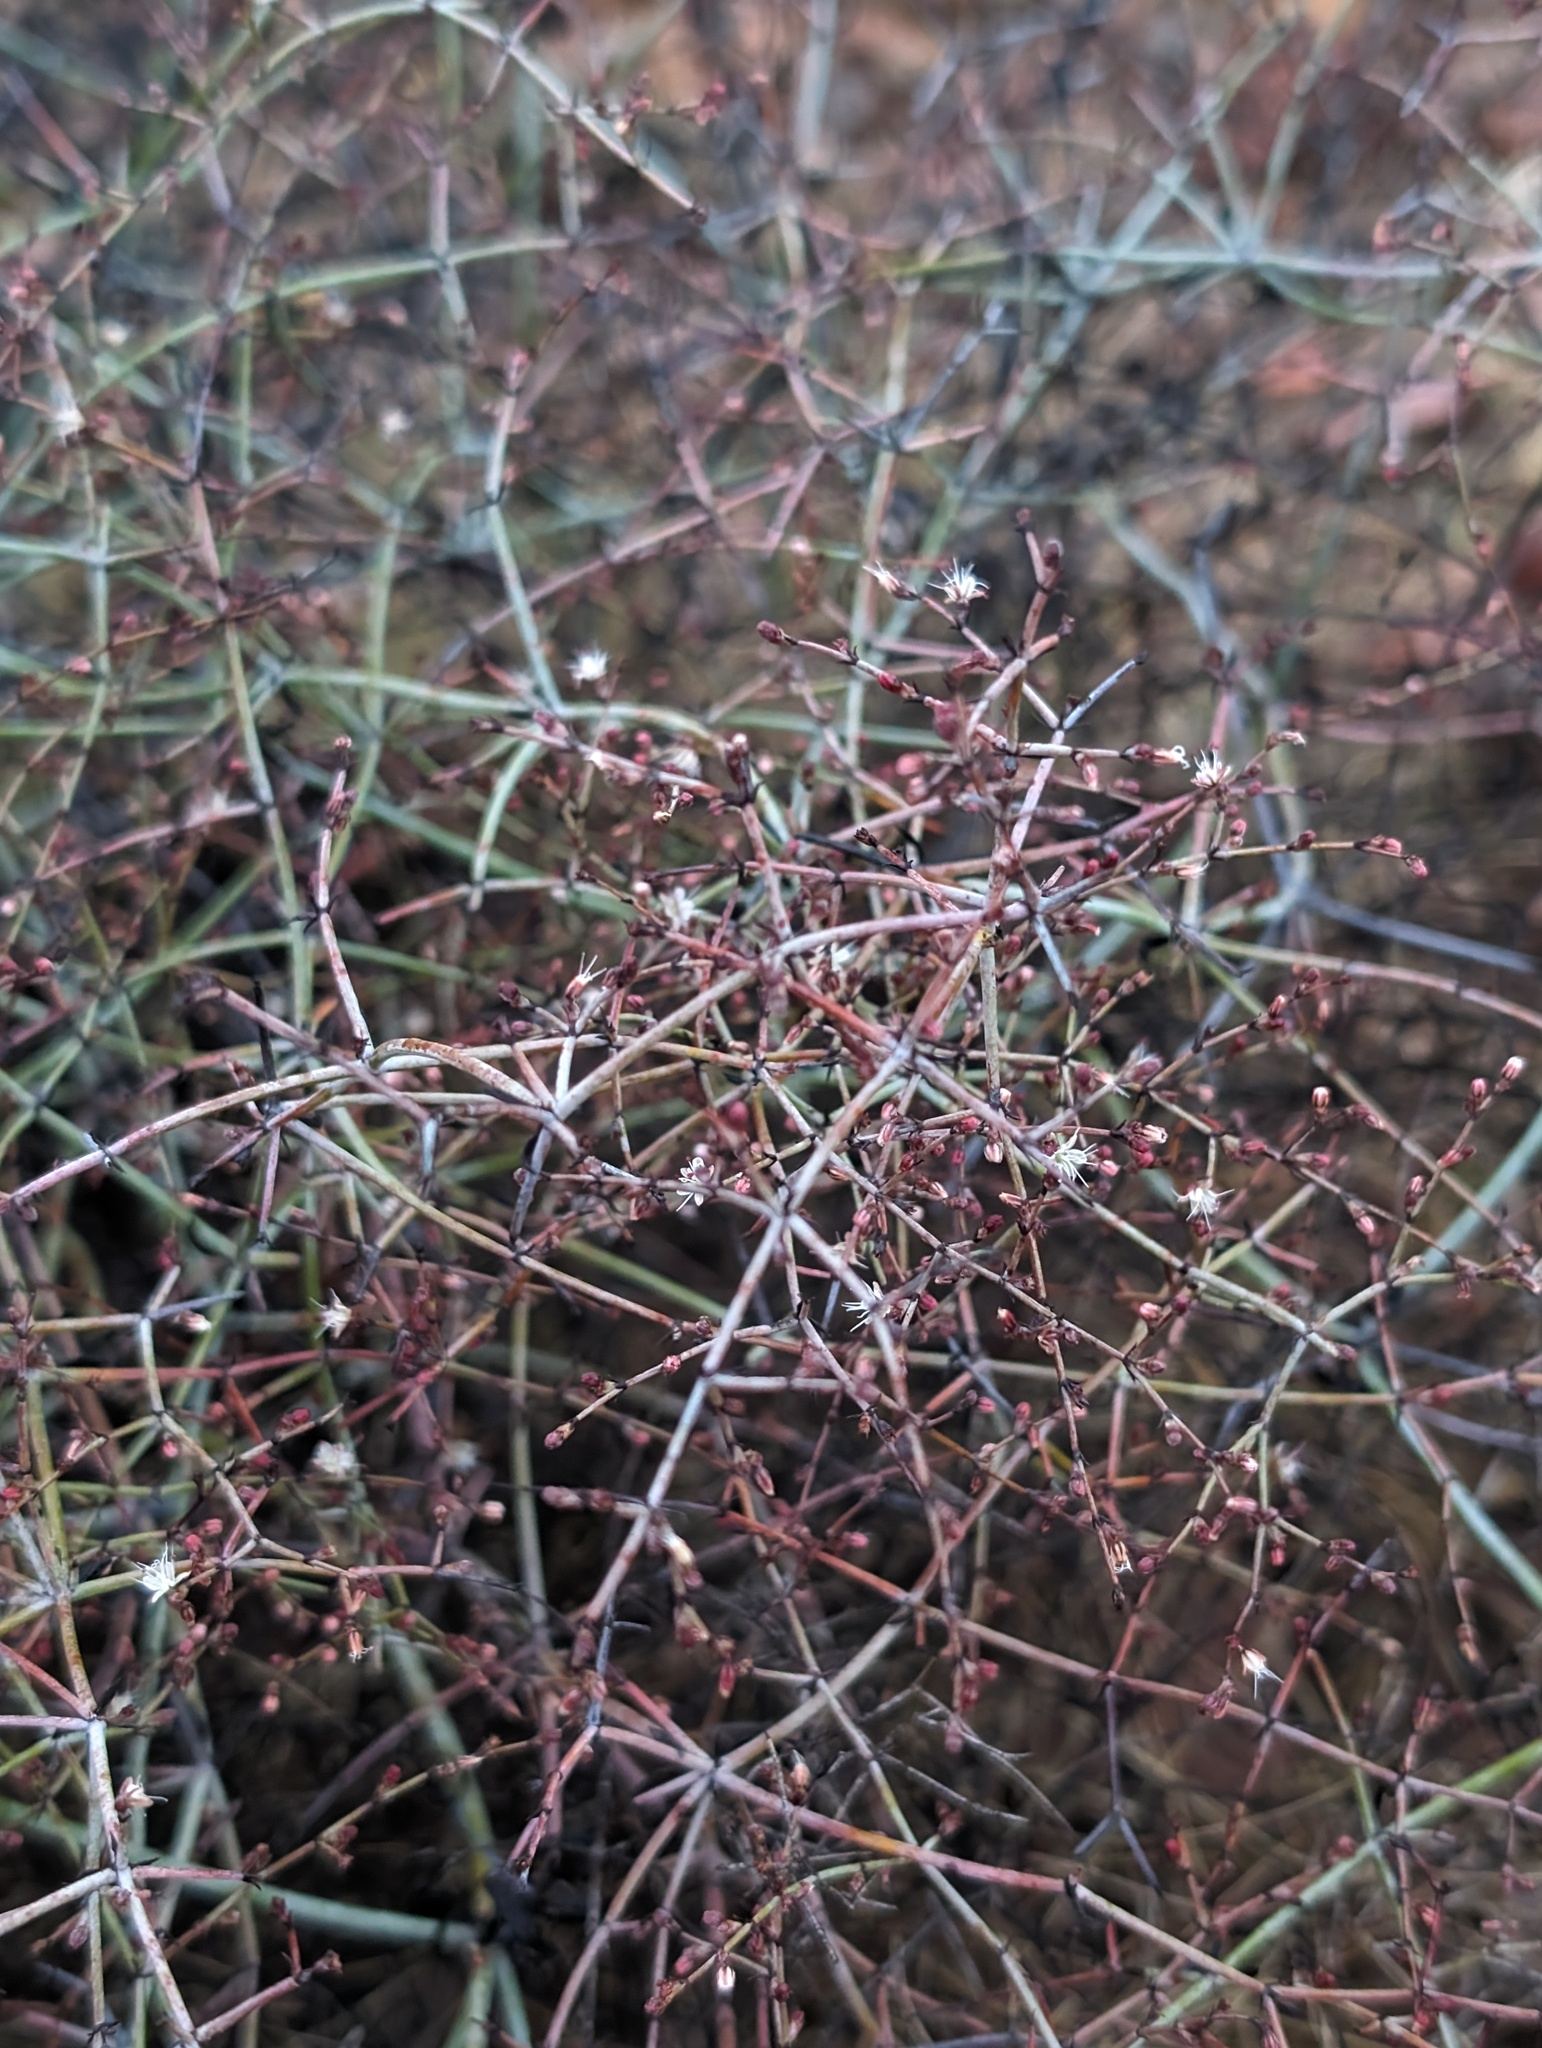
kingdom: Plantae
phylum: Tracheophyta
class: Magnoliopsida
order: Caryophyllales
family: Polygonaceae
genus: Eriogonum
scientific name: Eriogonum scalare
